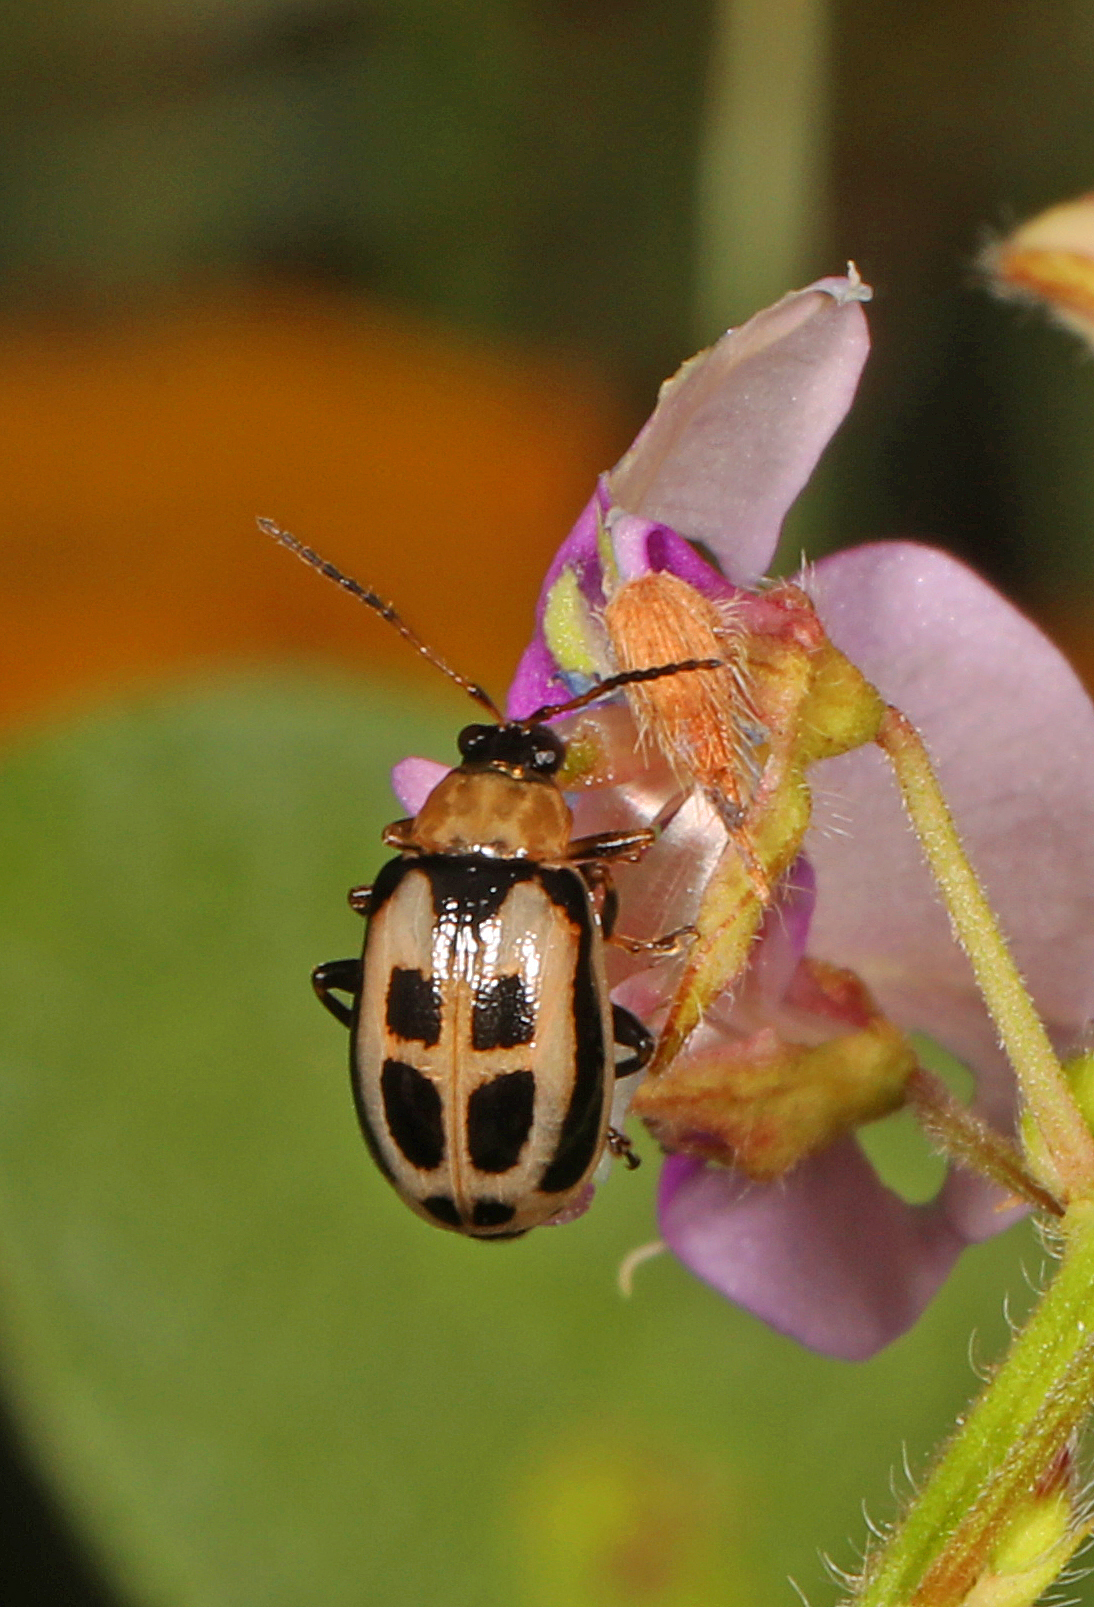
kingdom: Animalia
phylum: Arthropoda
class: Insecta
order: Coleoptera
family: Chrysomelidae
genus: Cerotoma
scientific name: Cerotoma trifurcata
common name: Bean leaf beetle
